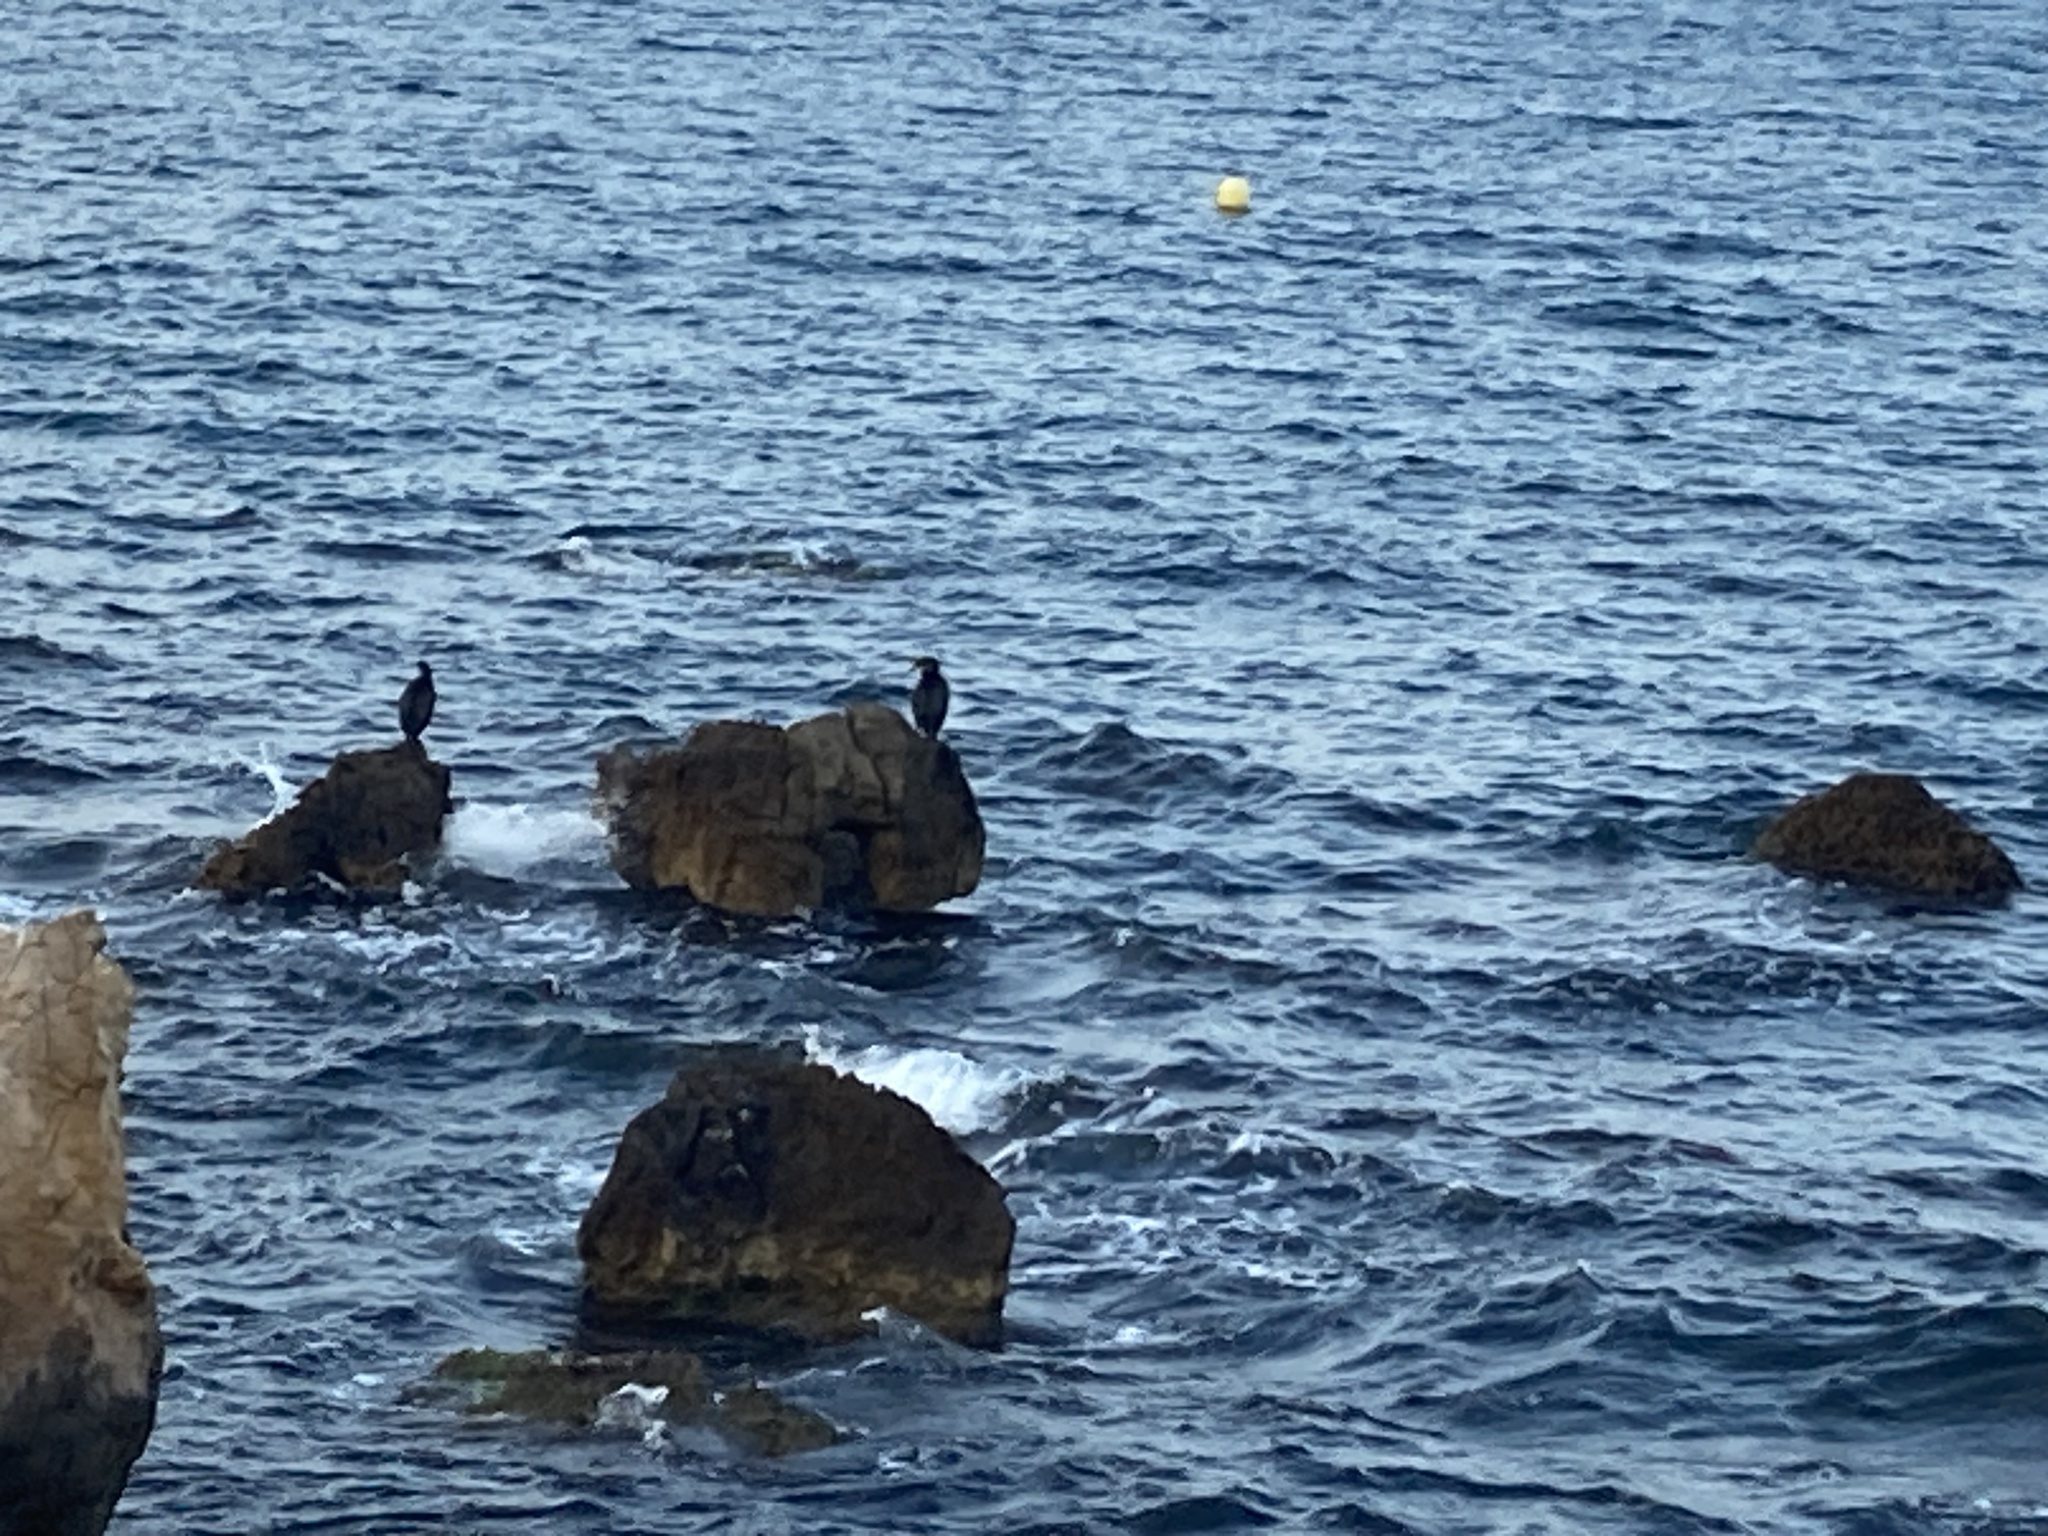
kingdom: Animalia
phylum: Chordata
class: Aves
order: Suliformes
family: Phalacrocoracidae
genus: Phalacrocorax
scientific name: Phalacrocorax aristotelis
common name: European shag
